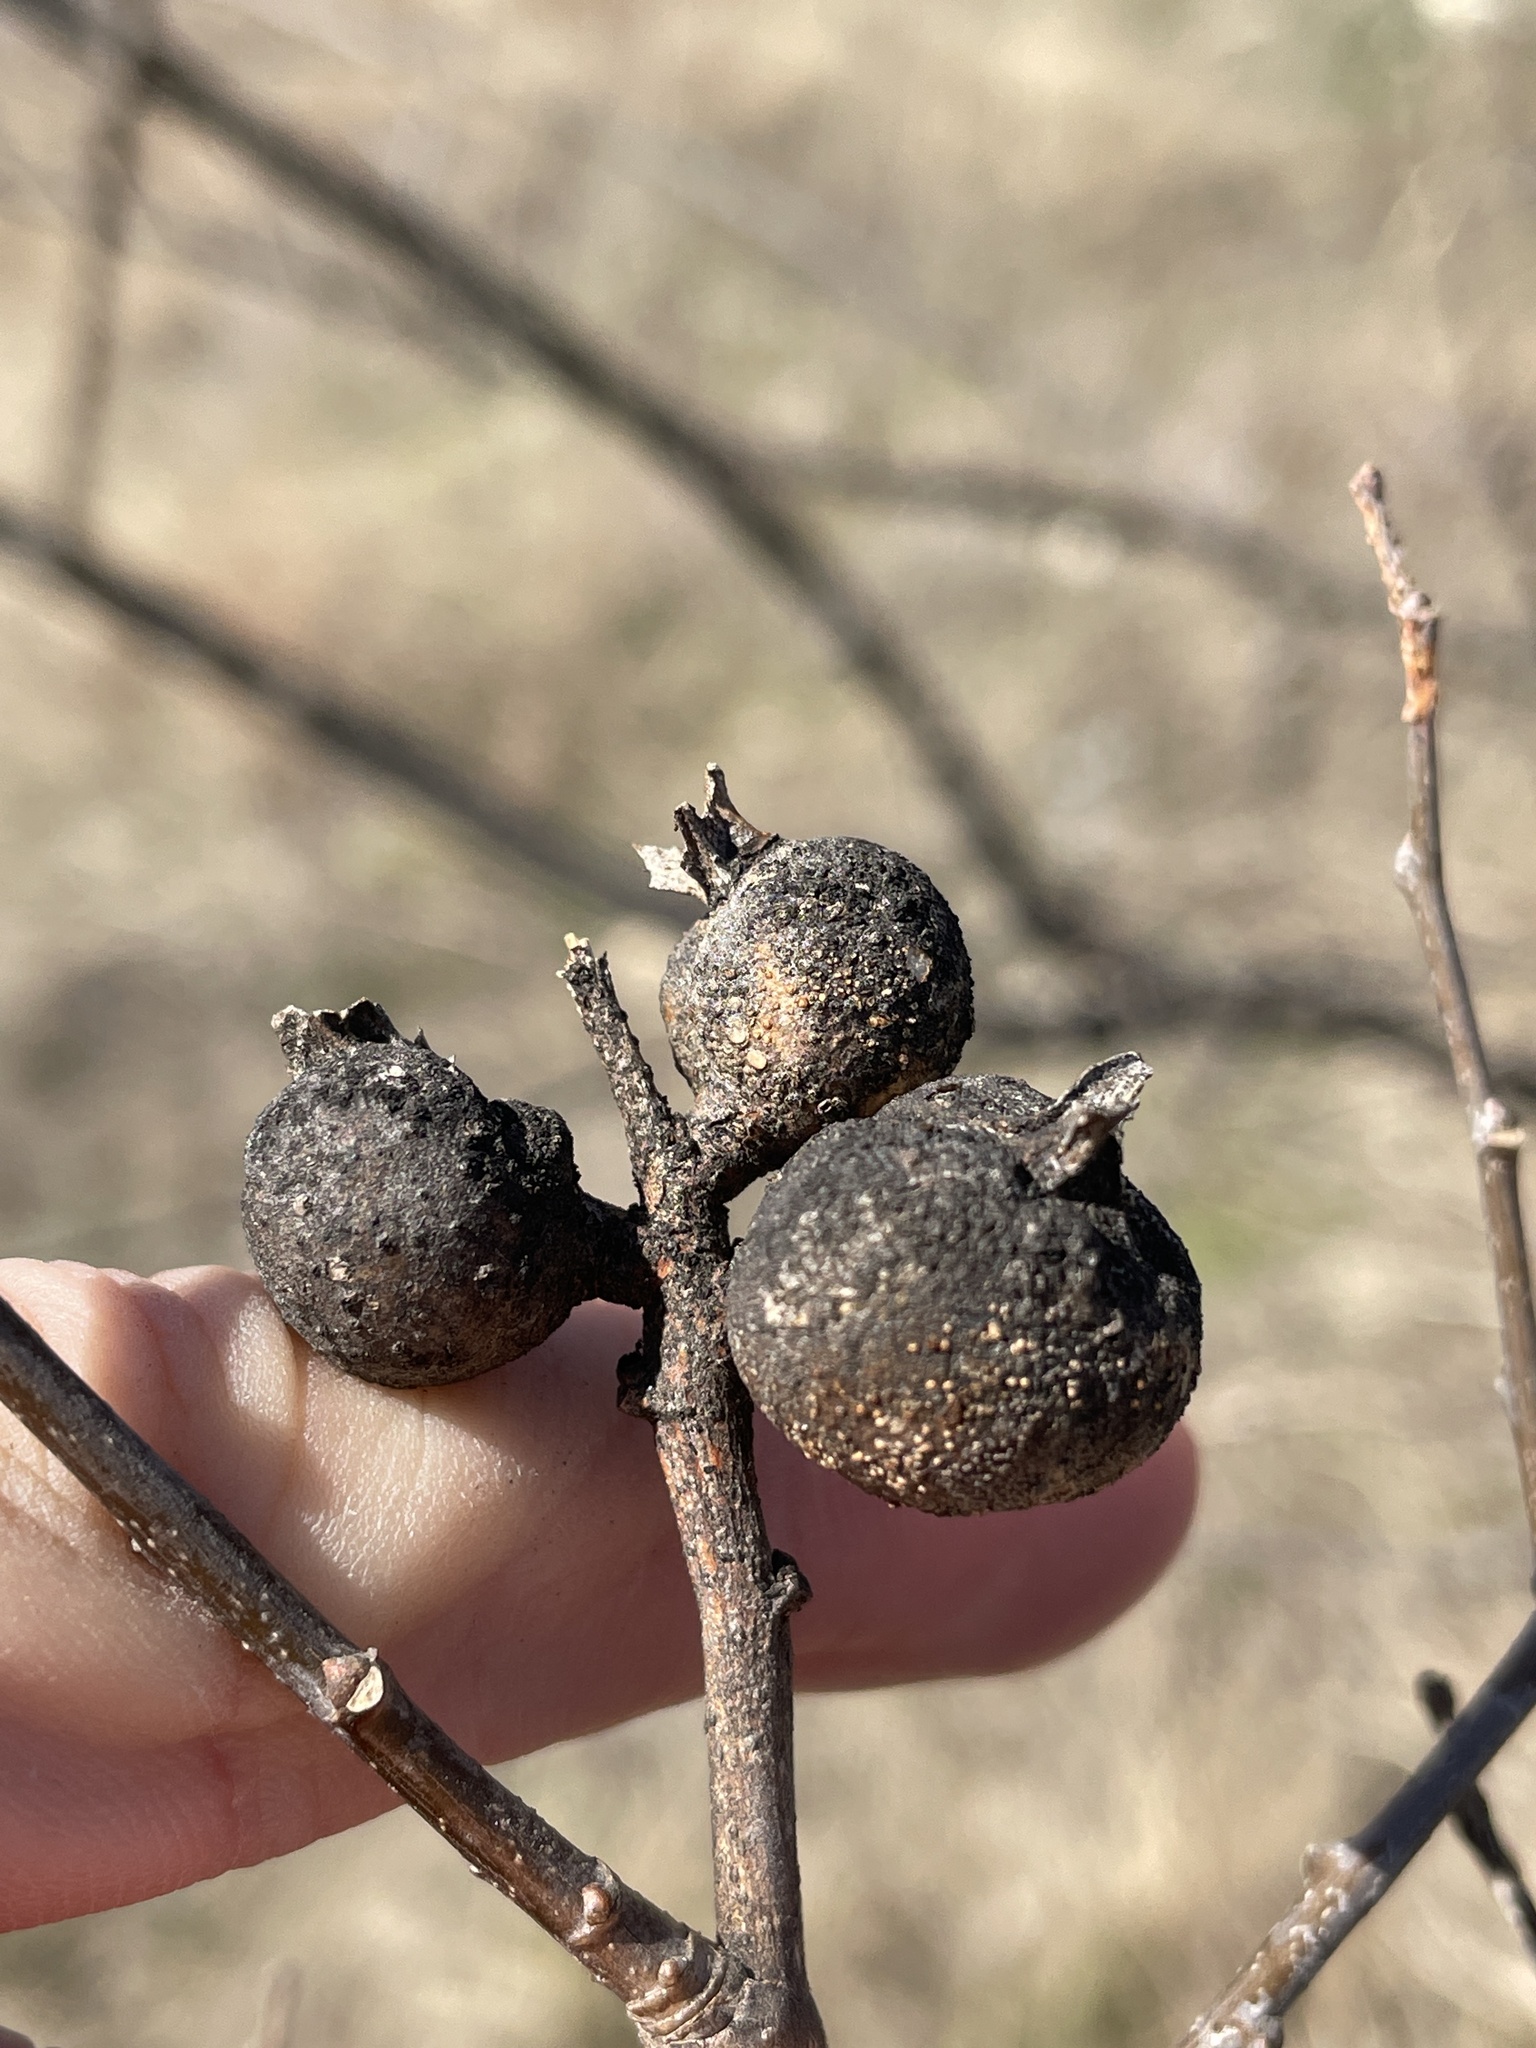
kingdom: Animalia
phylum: Arthropoda
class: Insecta
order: Hemiptera
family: Aphalaridae
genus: Pachypsylla
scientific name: Pachypsylla venusta
